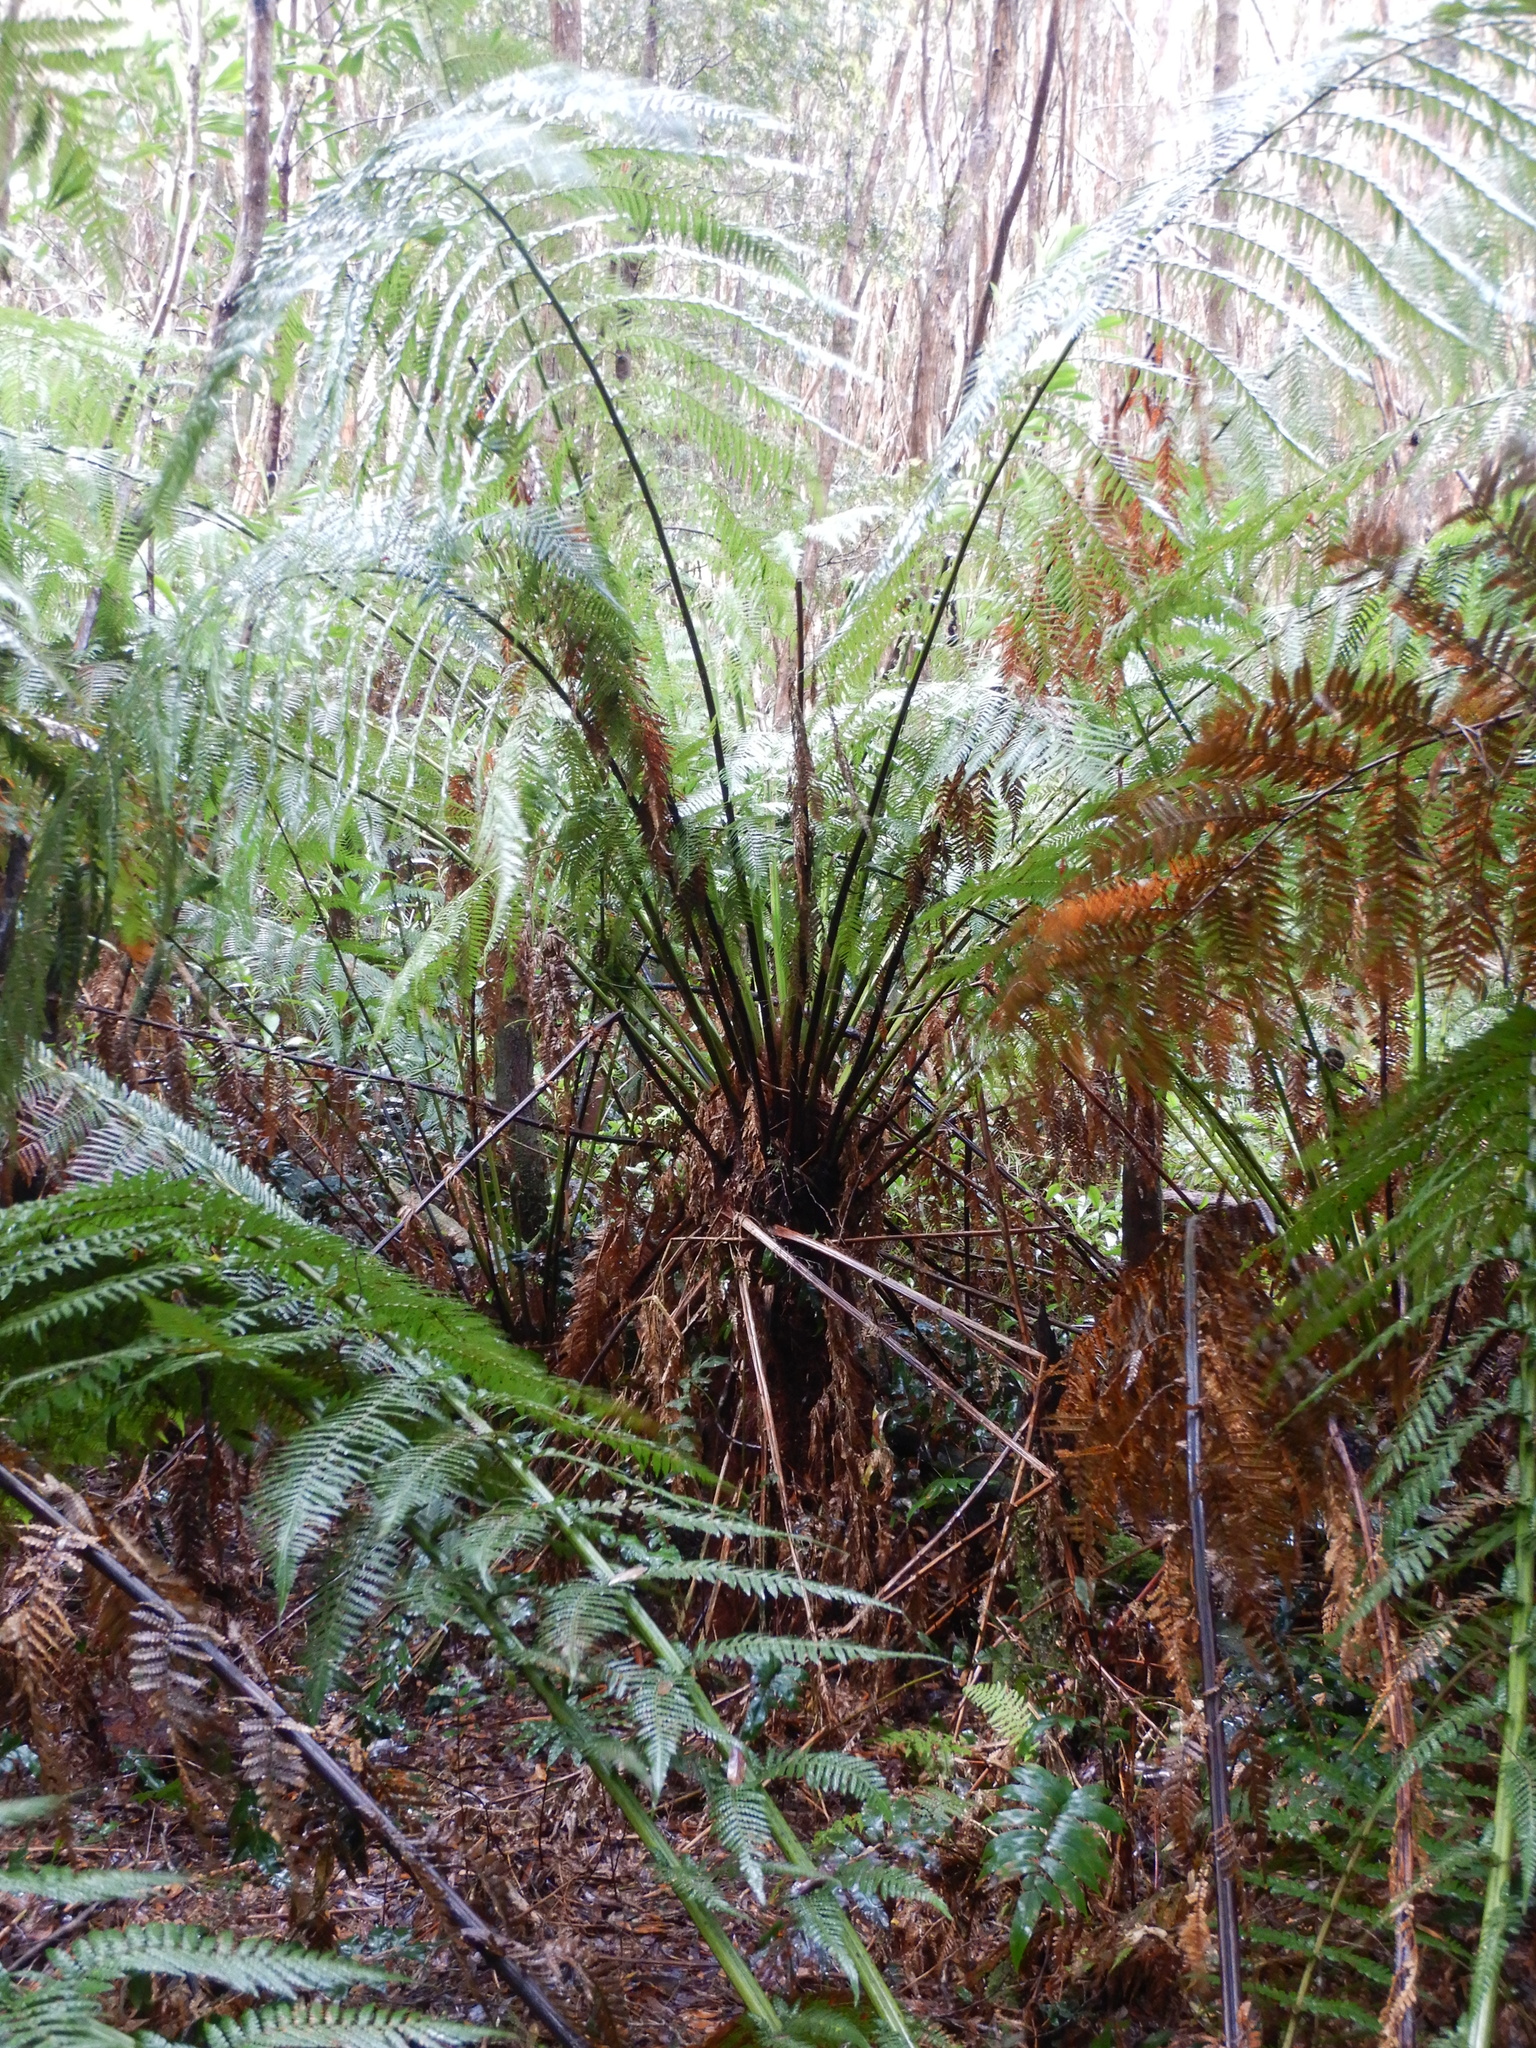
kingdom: Plantae
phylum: Tracheophyta
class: Polypodiopsida
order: Cyatheales
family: Dicksoniaceae
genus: Dicksonia
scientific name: Dicksonia antarctica
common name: Australian treefern
